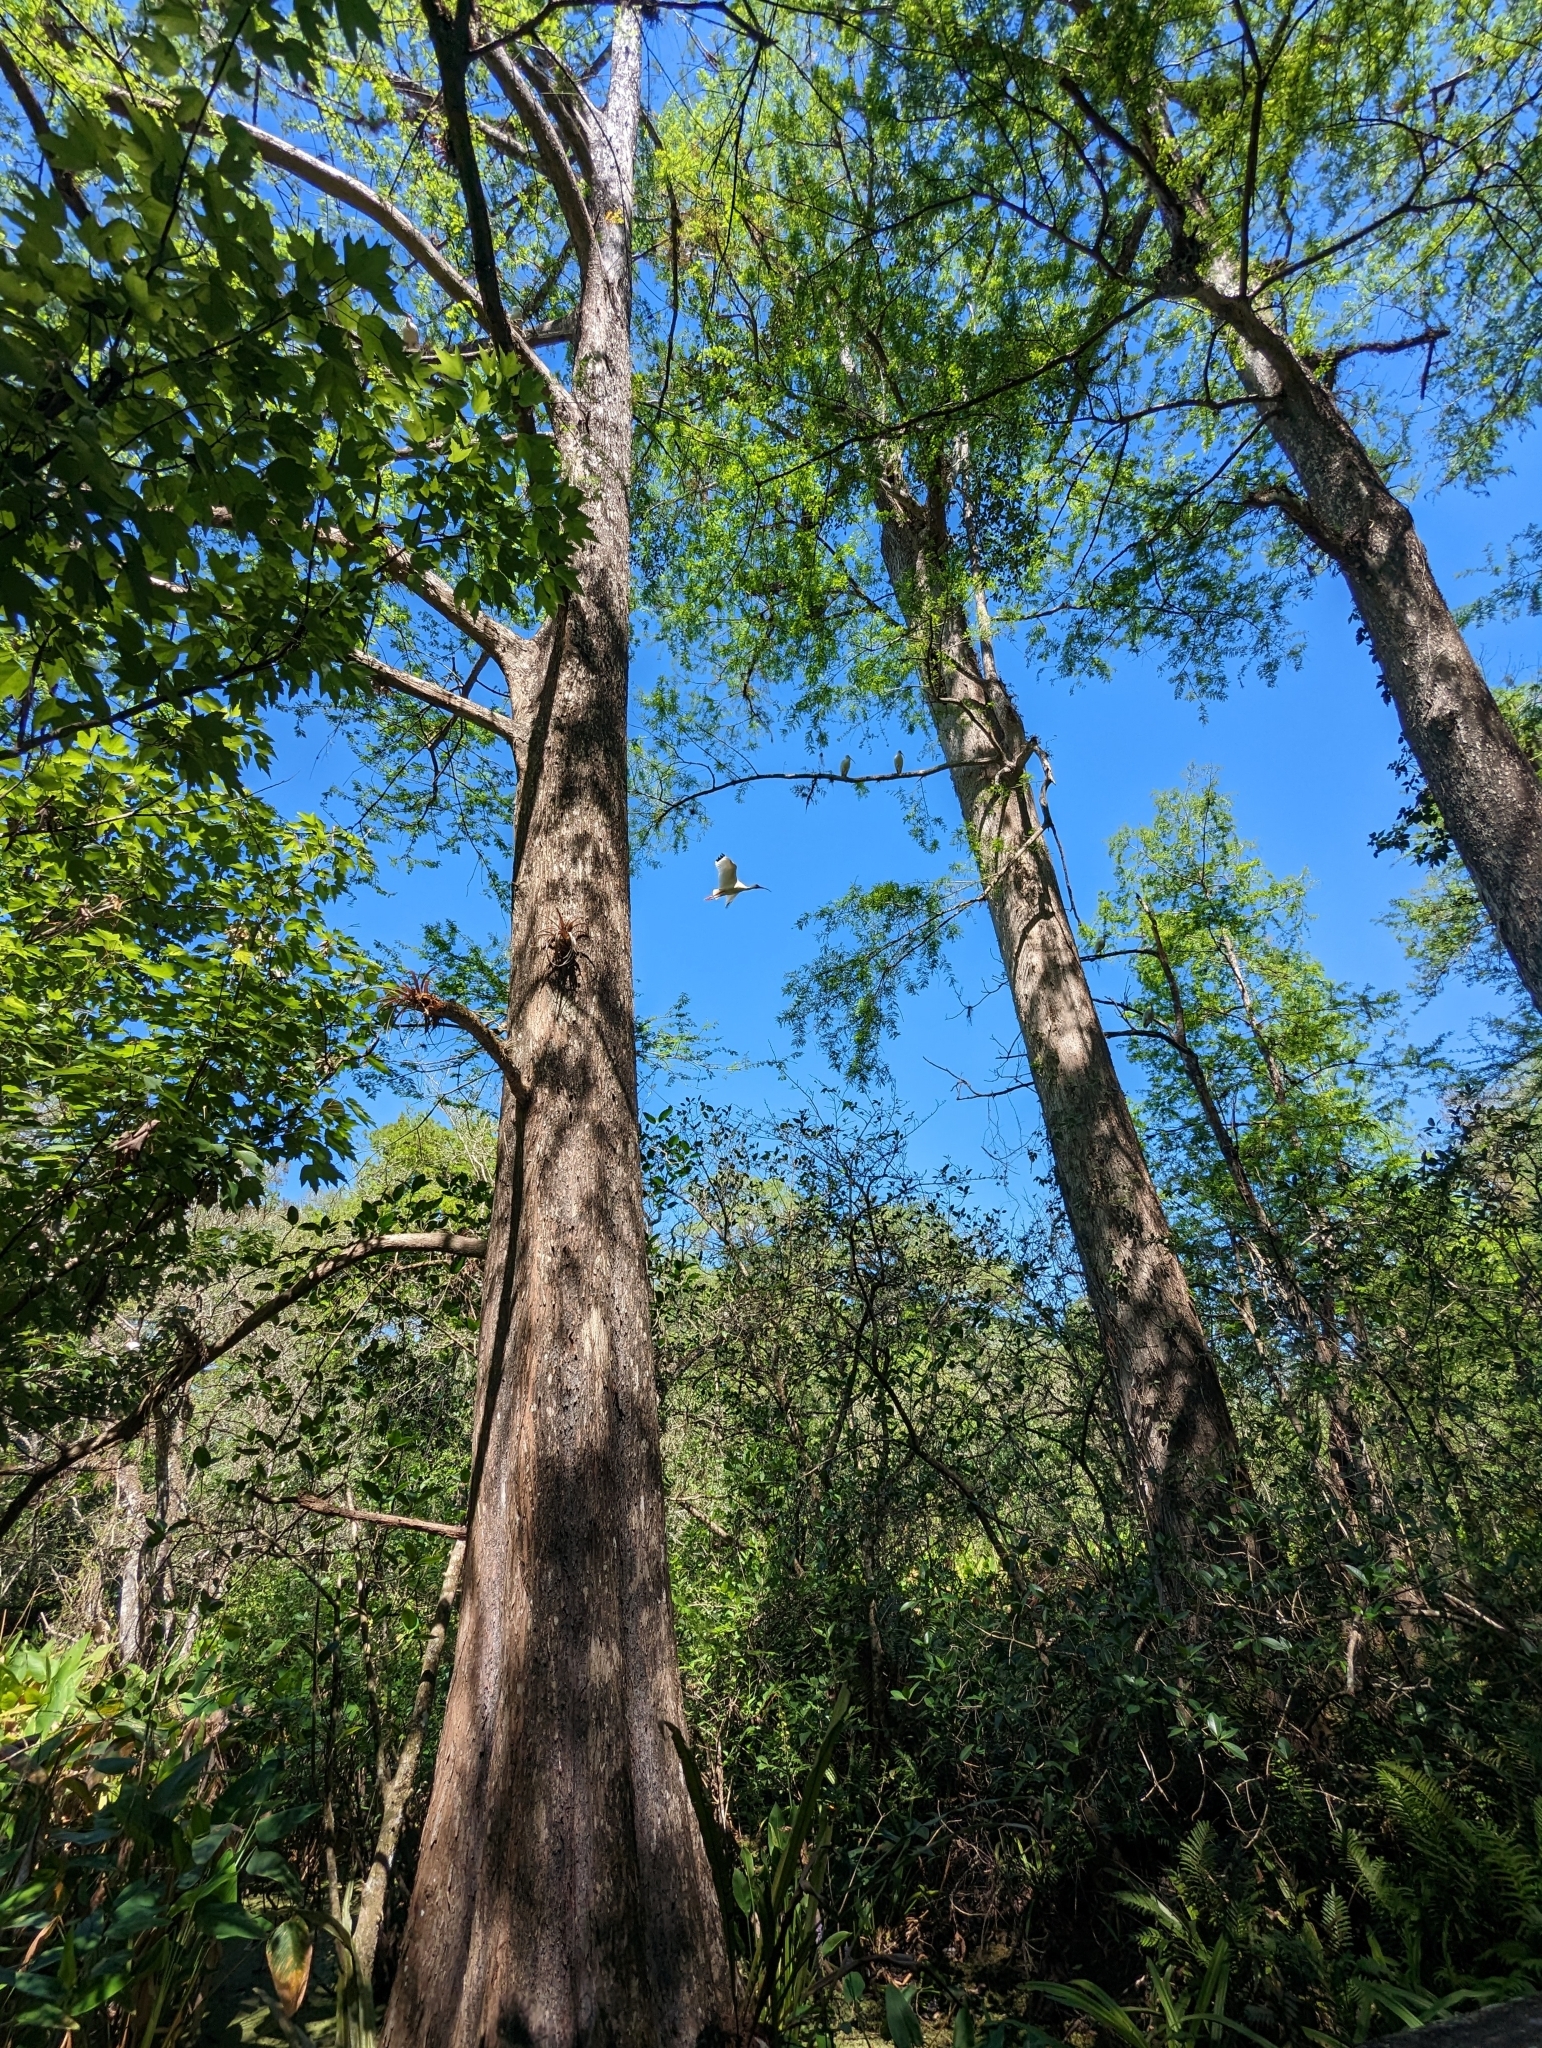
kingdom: Animalia
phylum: Chordata
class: Aves
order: Pelecaniformes
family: Threskiornithidae
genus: Eudocimus
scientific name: Eudocimus albus
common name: White ibis
